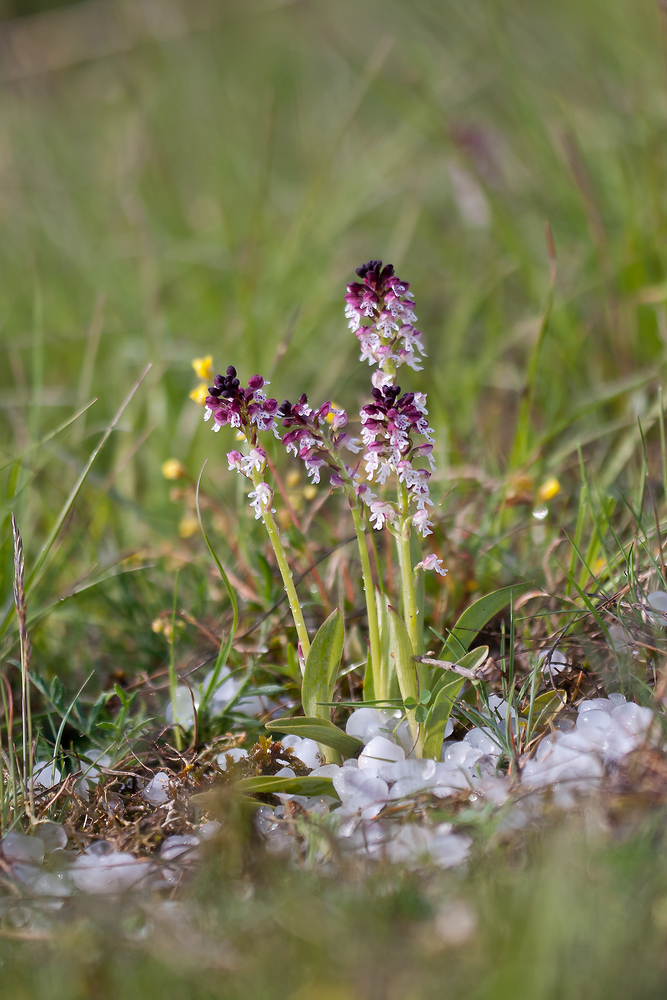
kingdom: Plantae
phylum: Tracheophyta
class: Liliopsida
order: Asparagales
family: Orchidaceae
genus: Neotinea
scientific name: Neotinea ustulata
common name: Burnt orchid
